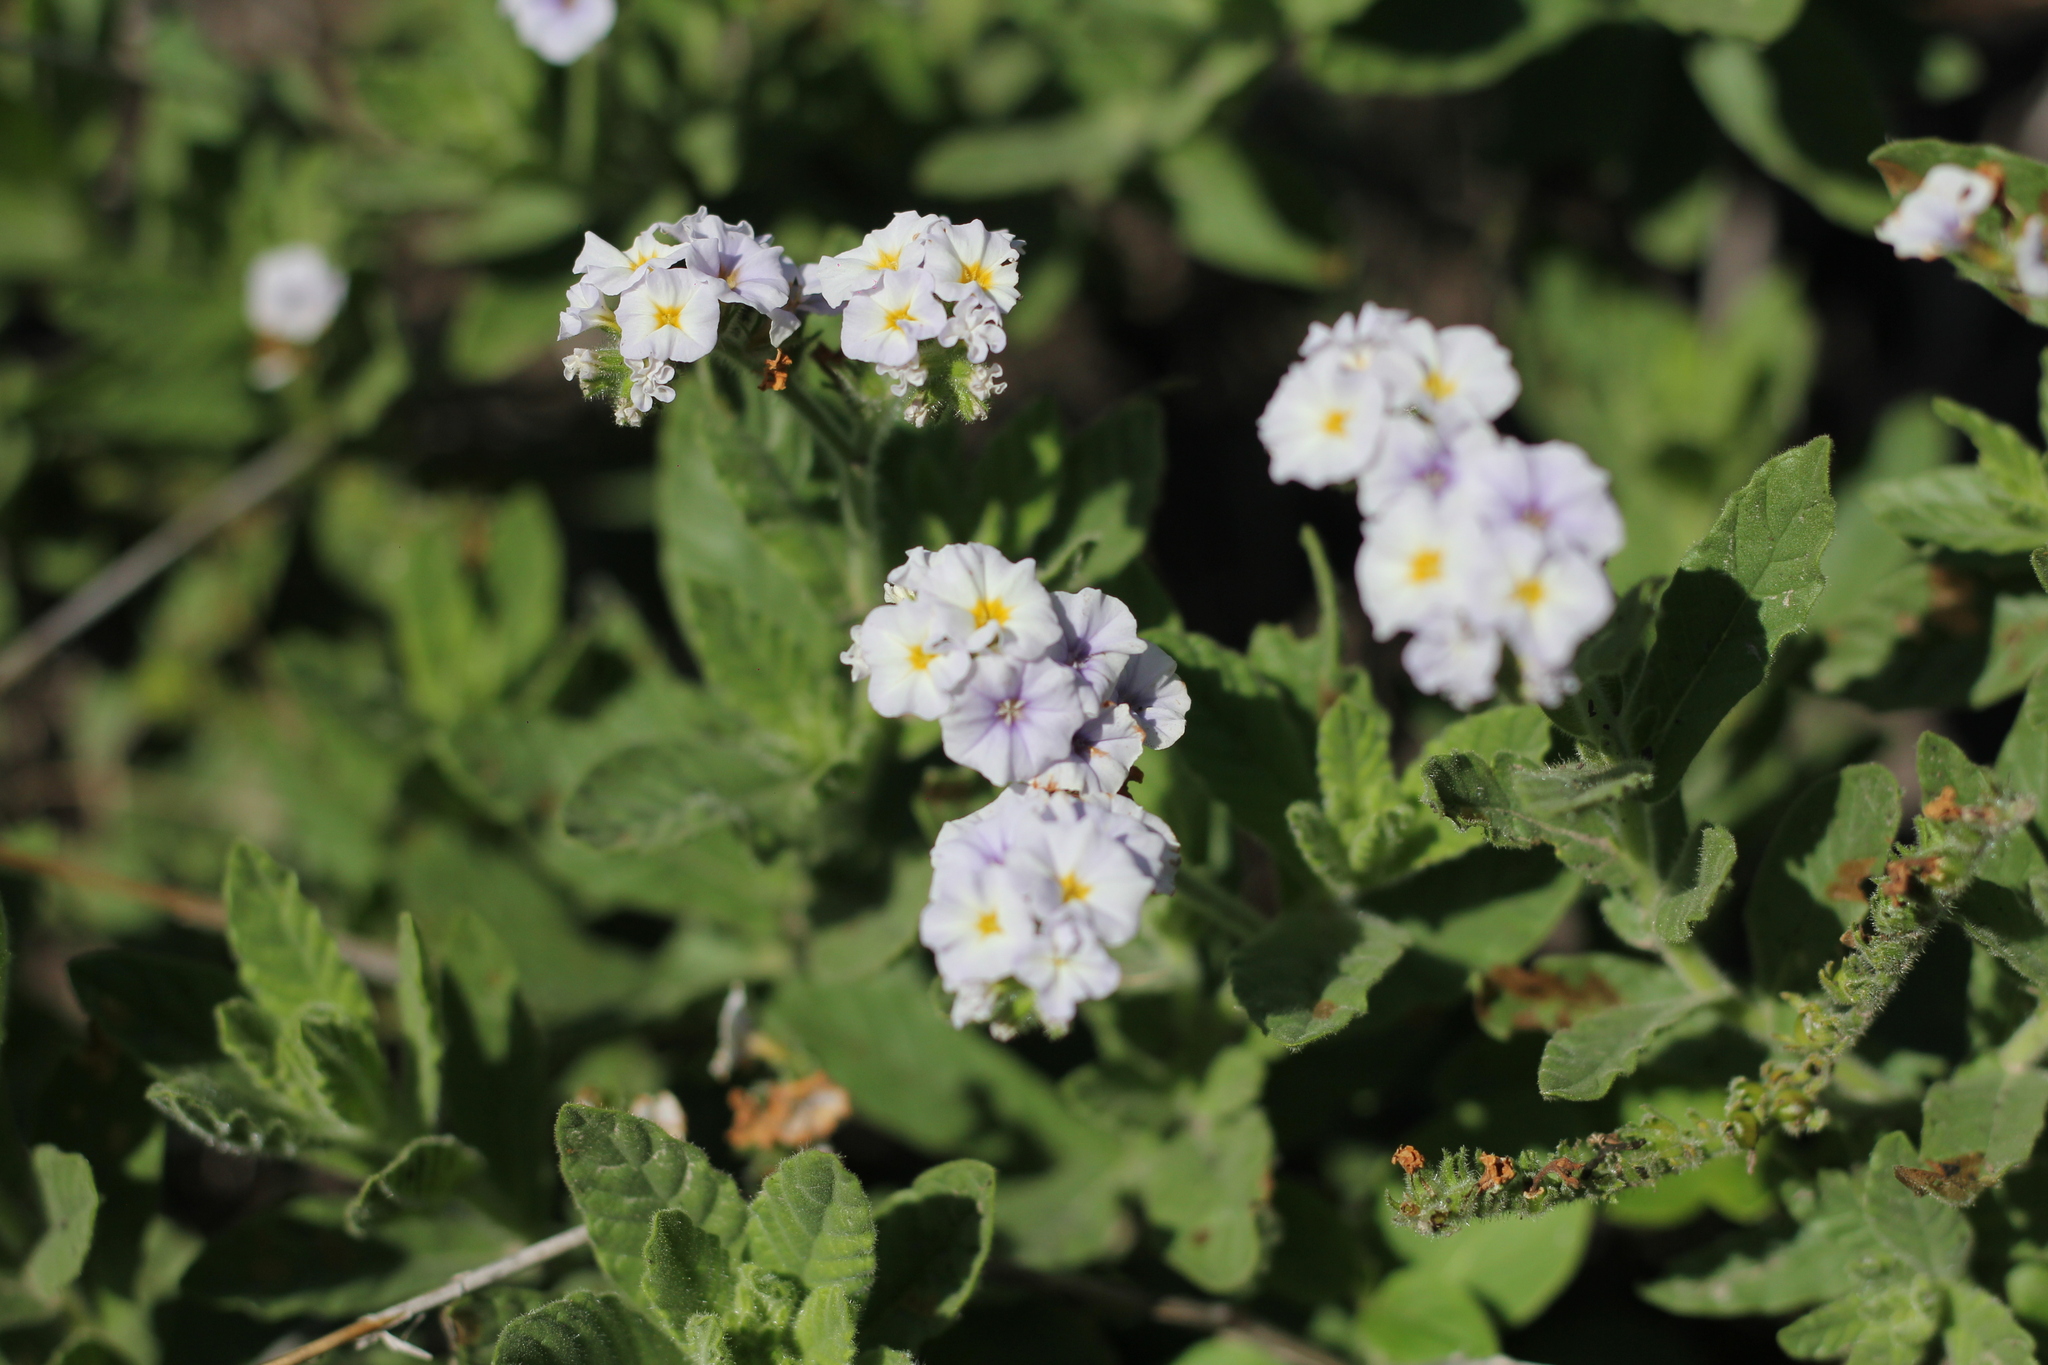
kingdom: Plantae
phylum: Tracheophyta
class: Magnoliopsida
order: Boraginales
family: Heliotropiaceae
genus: Heliotropium
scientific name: Heliotropium amplexicaule
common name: Clasping heliotrope
